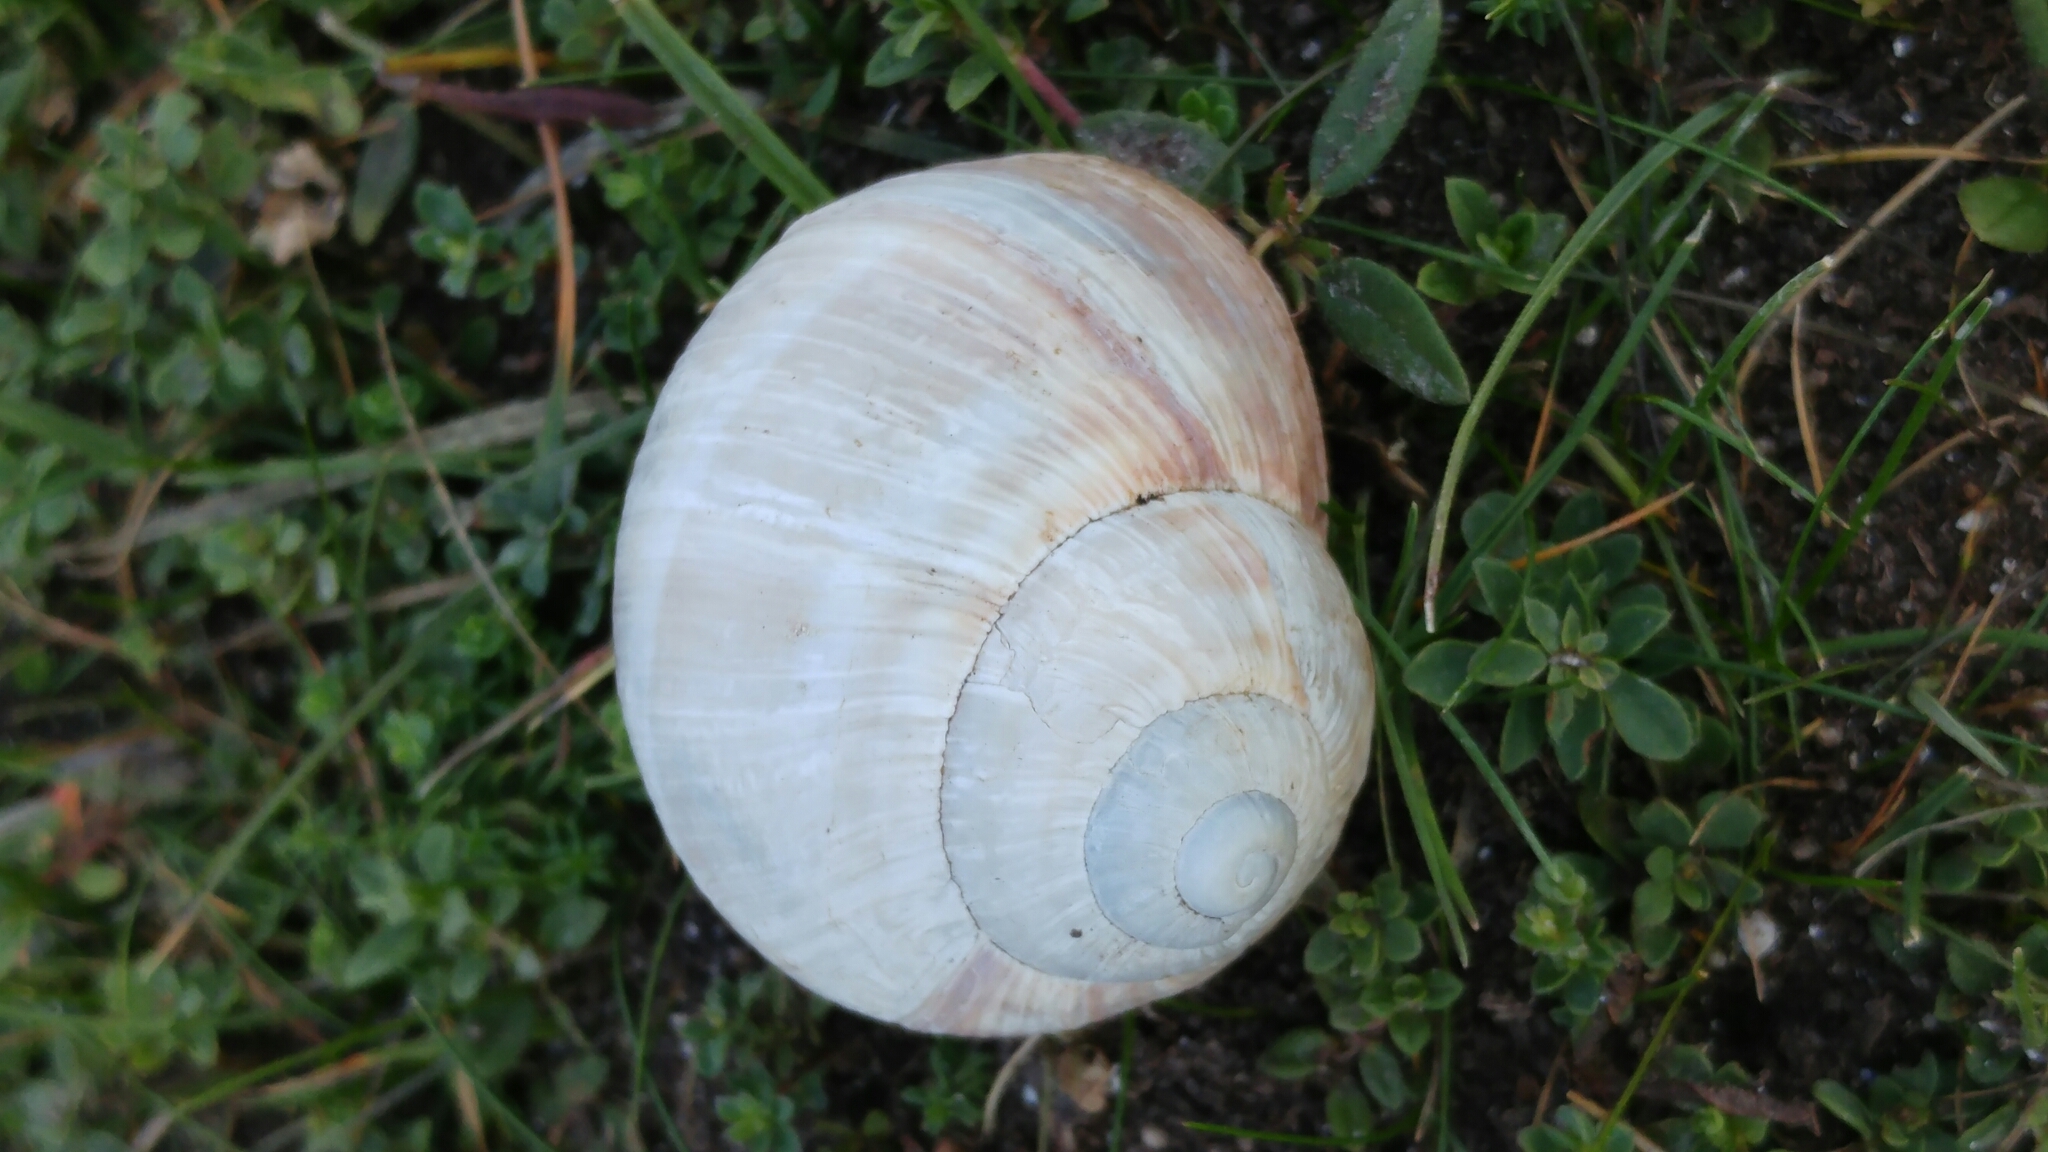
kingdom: Animalia
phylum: Mollusca
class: Gastropoda
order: Stylommatophora
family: Helicidae
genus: Helix
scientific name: Helix pomatia
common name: Roman snail
